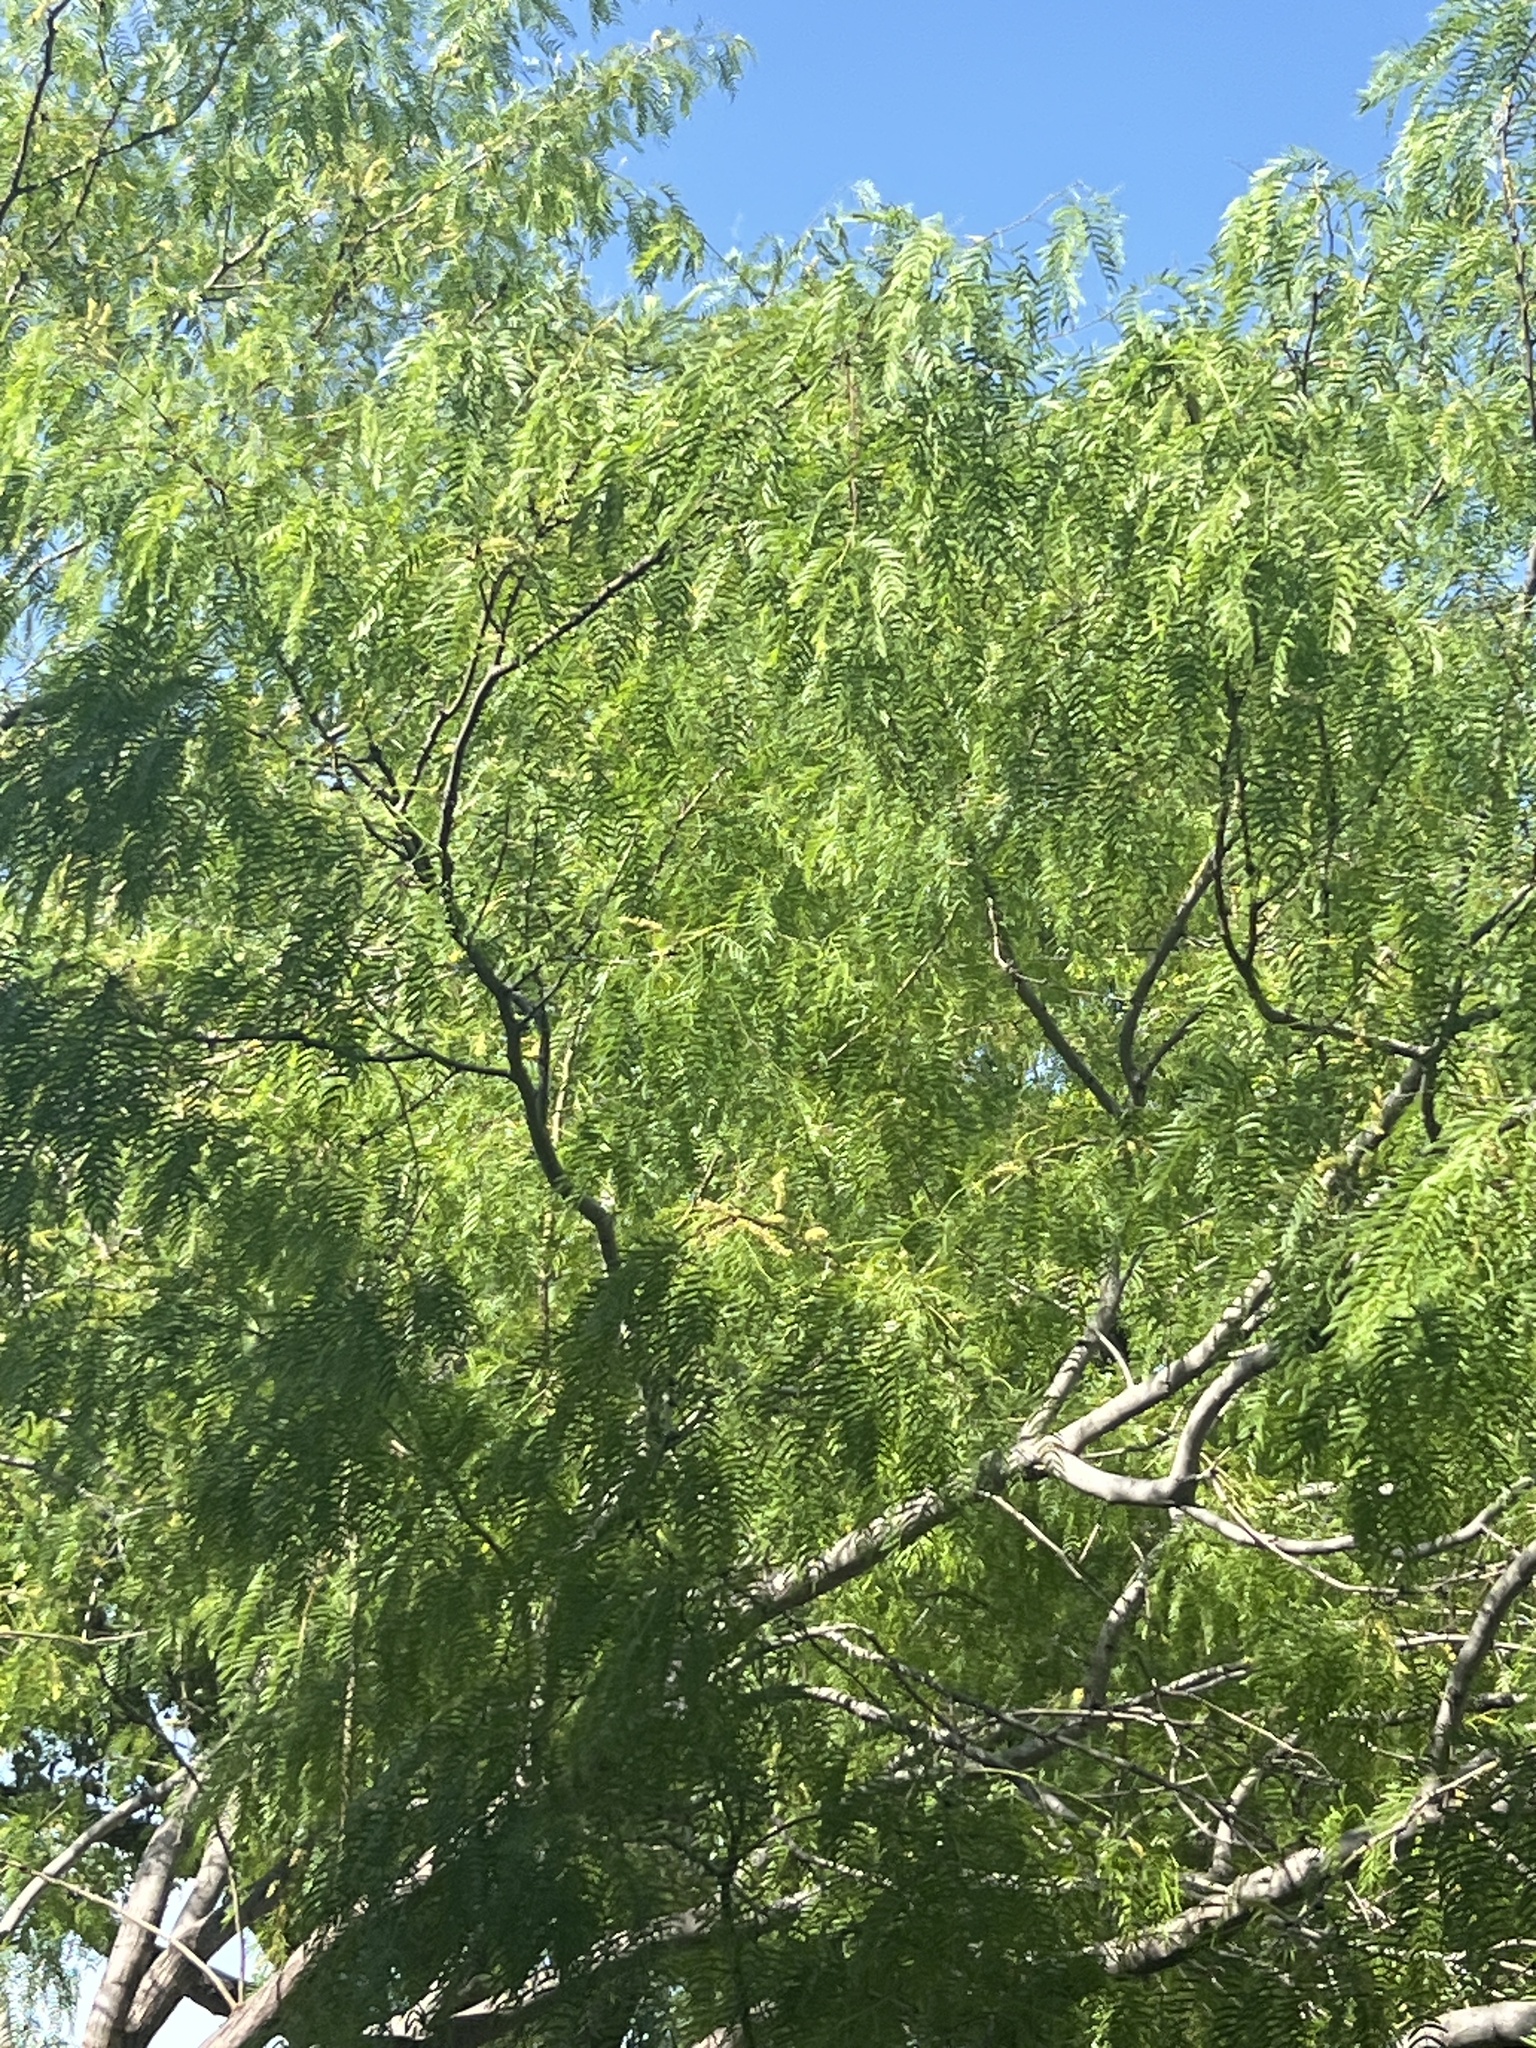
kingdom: Plantae
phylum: Tracheophyta
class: Magnoliopsida
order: Fabales
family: Fabaceae
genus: Prosopis
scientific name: Prosopis glandulosa
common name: Honey mesquite
